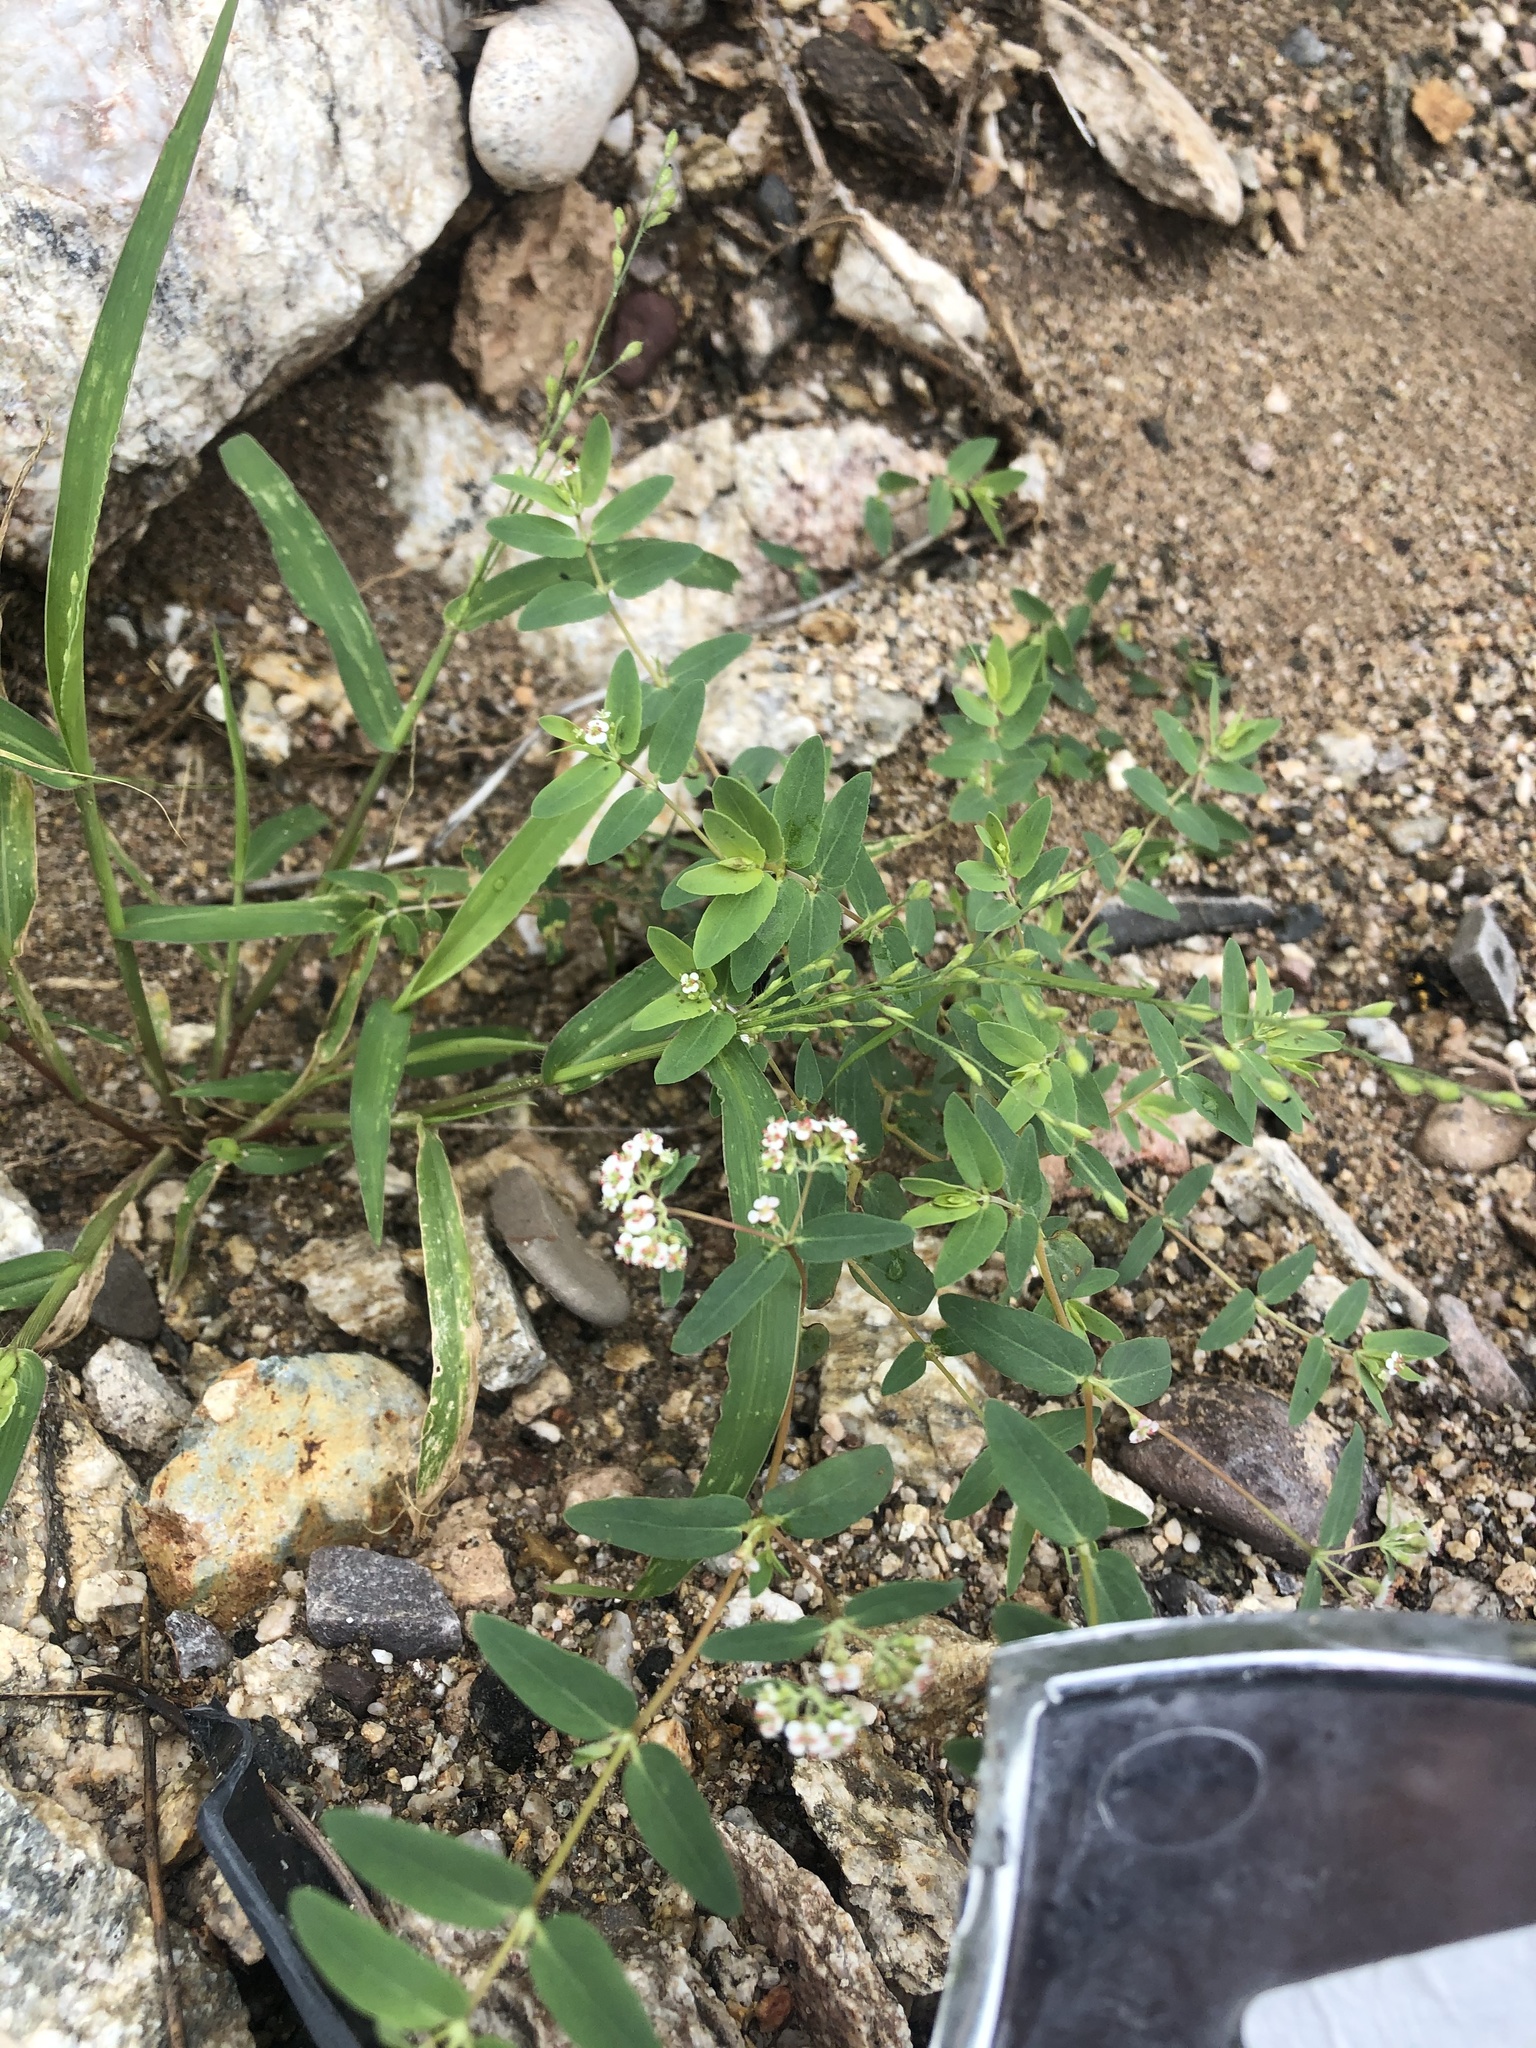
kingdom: Plantae
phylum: Tracheophyta
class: Magnoliopsida
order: Malpighiales
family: Euphorbiaceae
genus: Euphorbia
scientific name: Euphorbia capitellata
